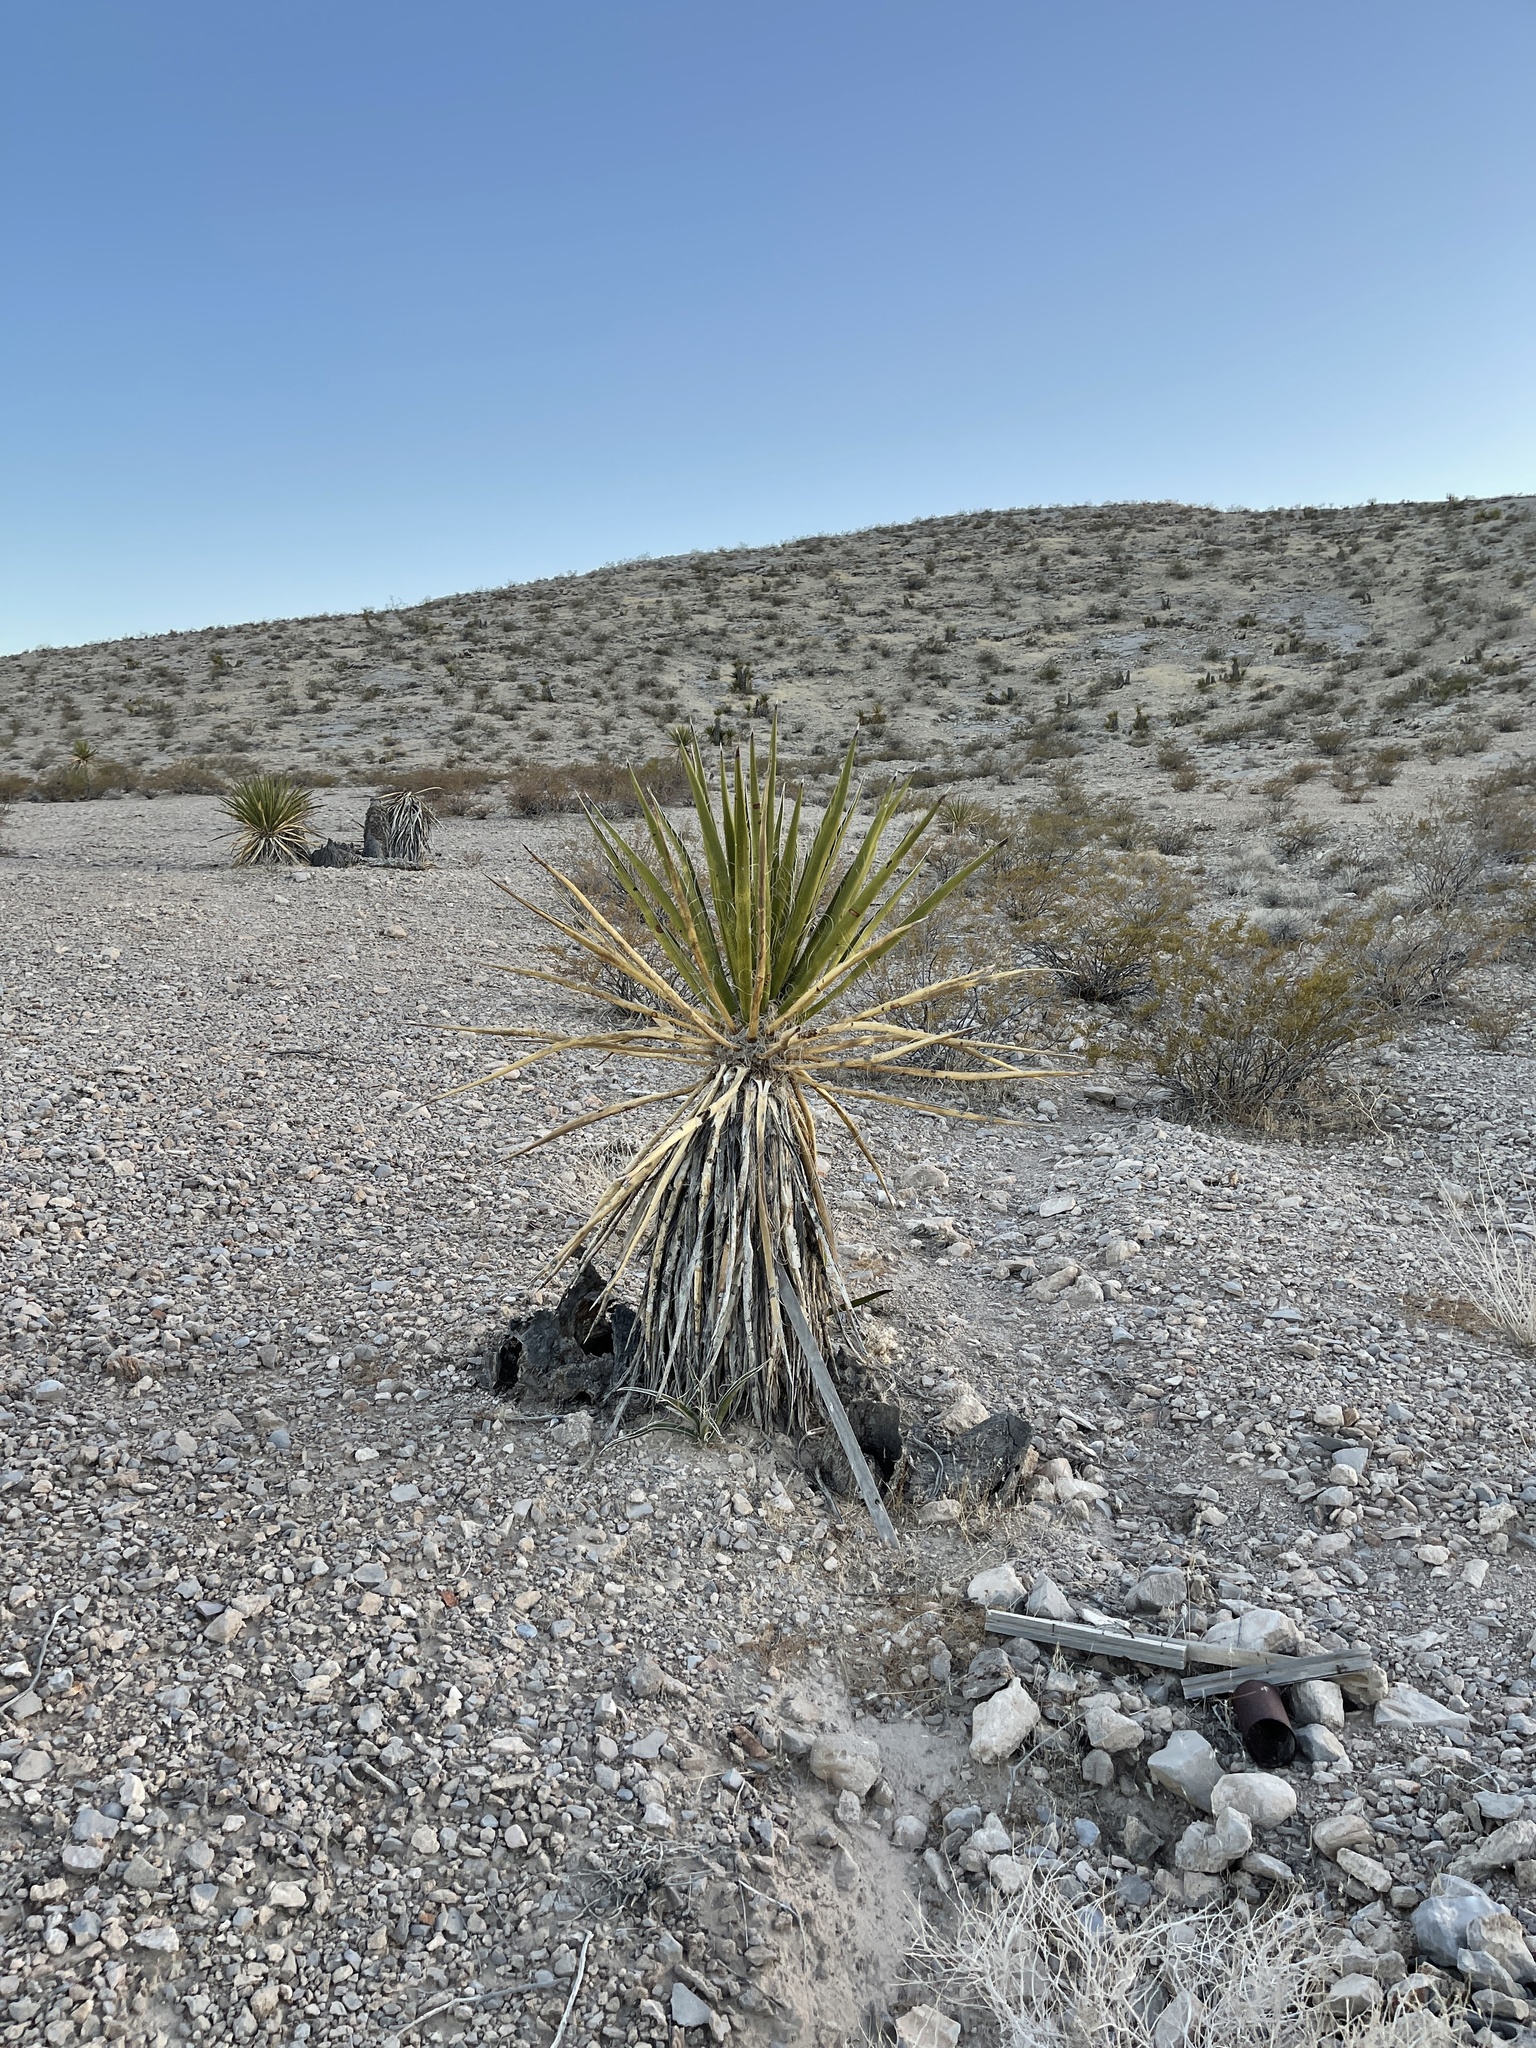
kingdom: Plantae
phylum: Tracheophyta
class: Liliopsida
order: Asparagales
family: Asparagaceae
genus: Yucca
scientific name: Yucca schidigera
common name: Mojave yucca
